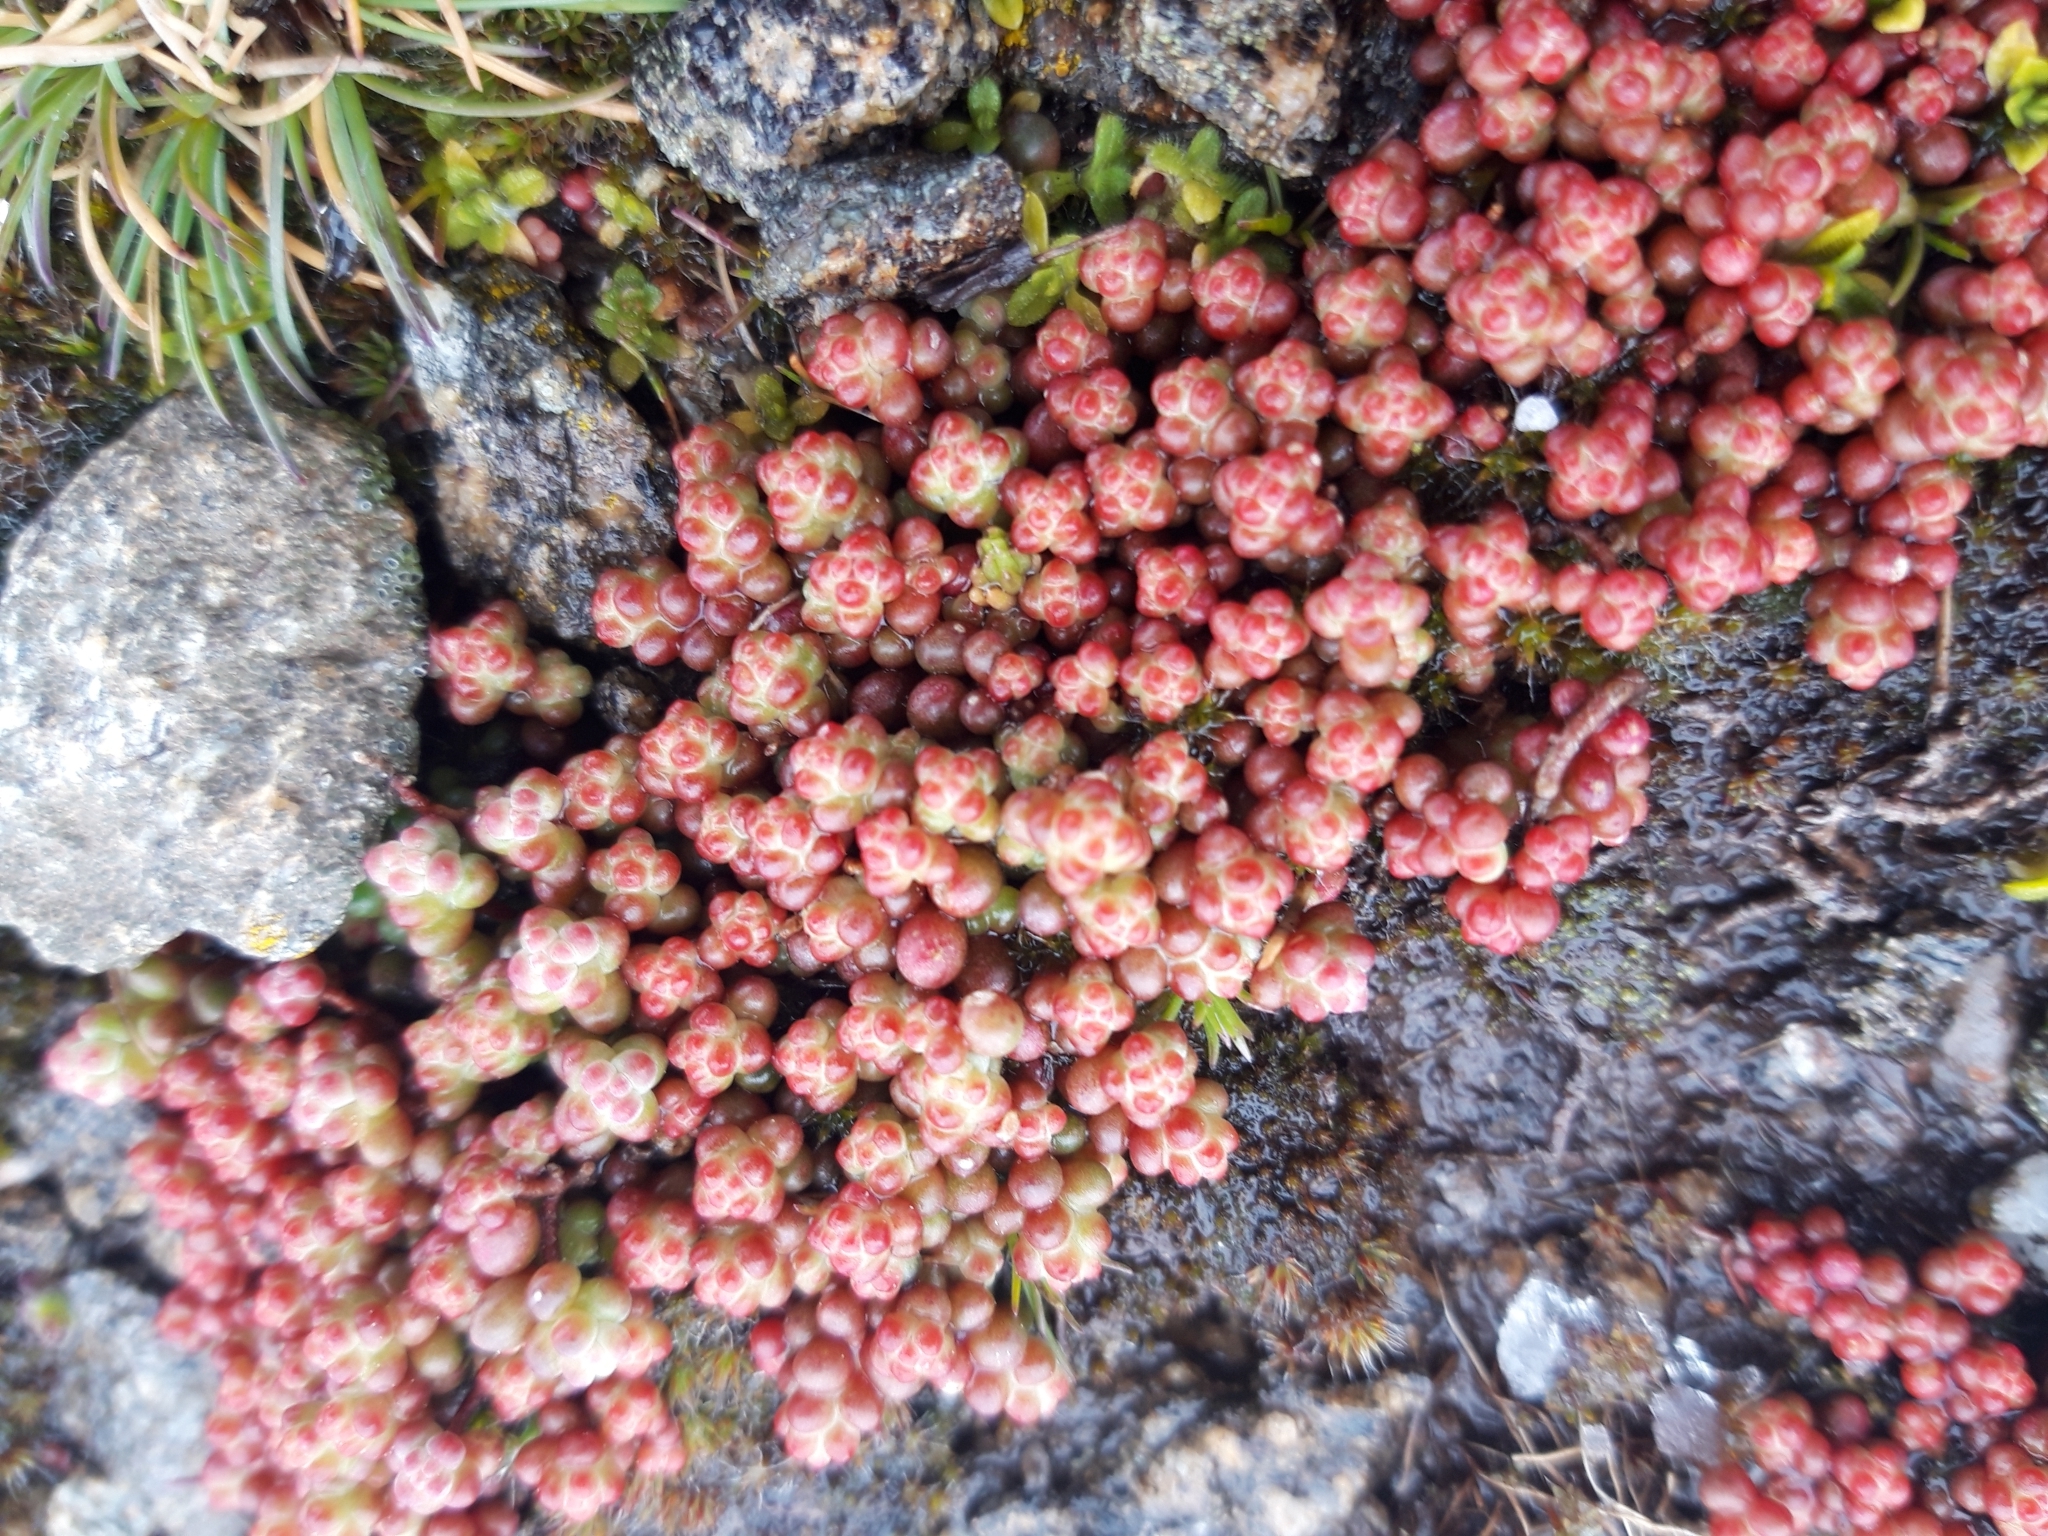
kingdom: Plantae
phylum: Tracheophyta
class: Magnoliopsida
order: Saxifragales
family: Crassulaceae
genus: Sedum
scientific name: Sedum brevifolium
